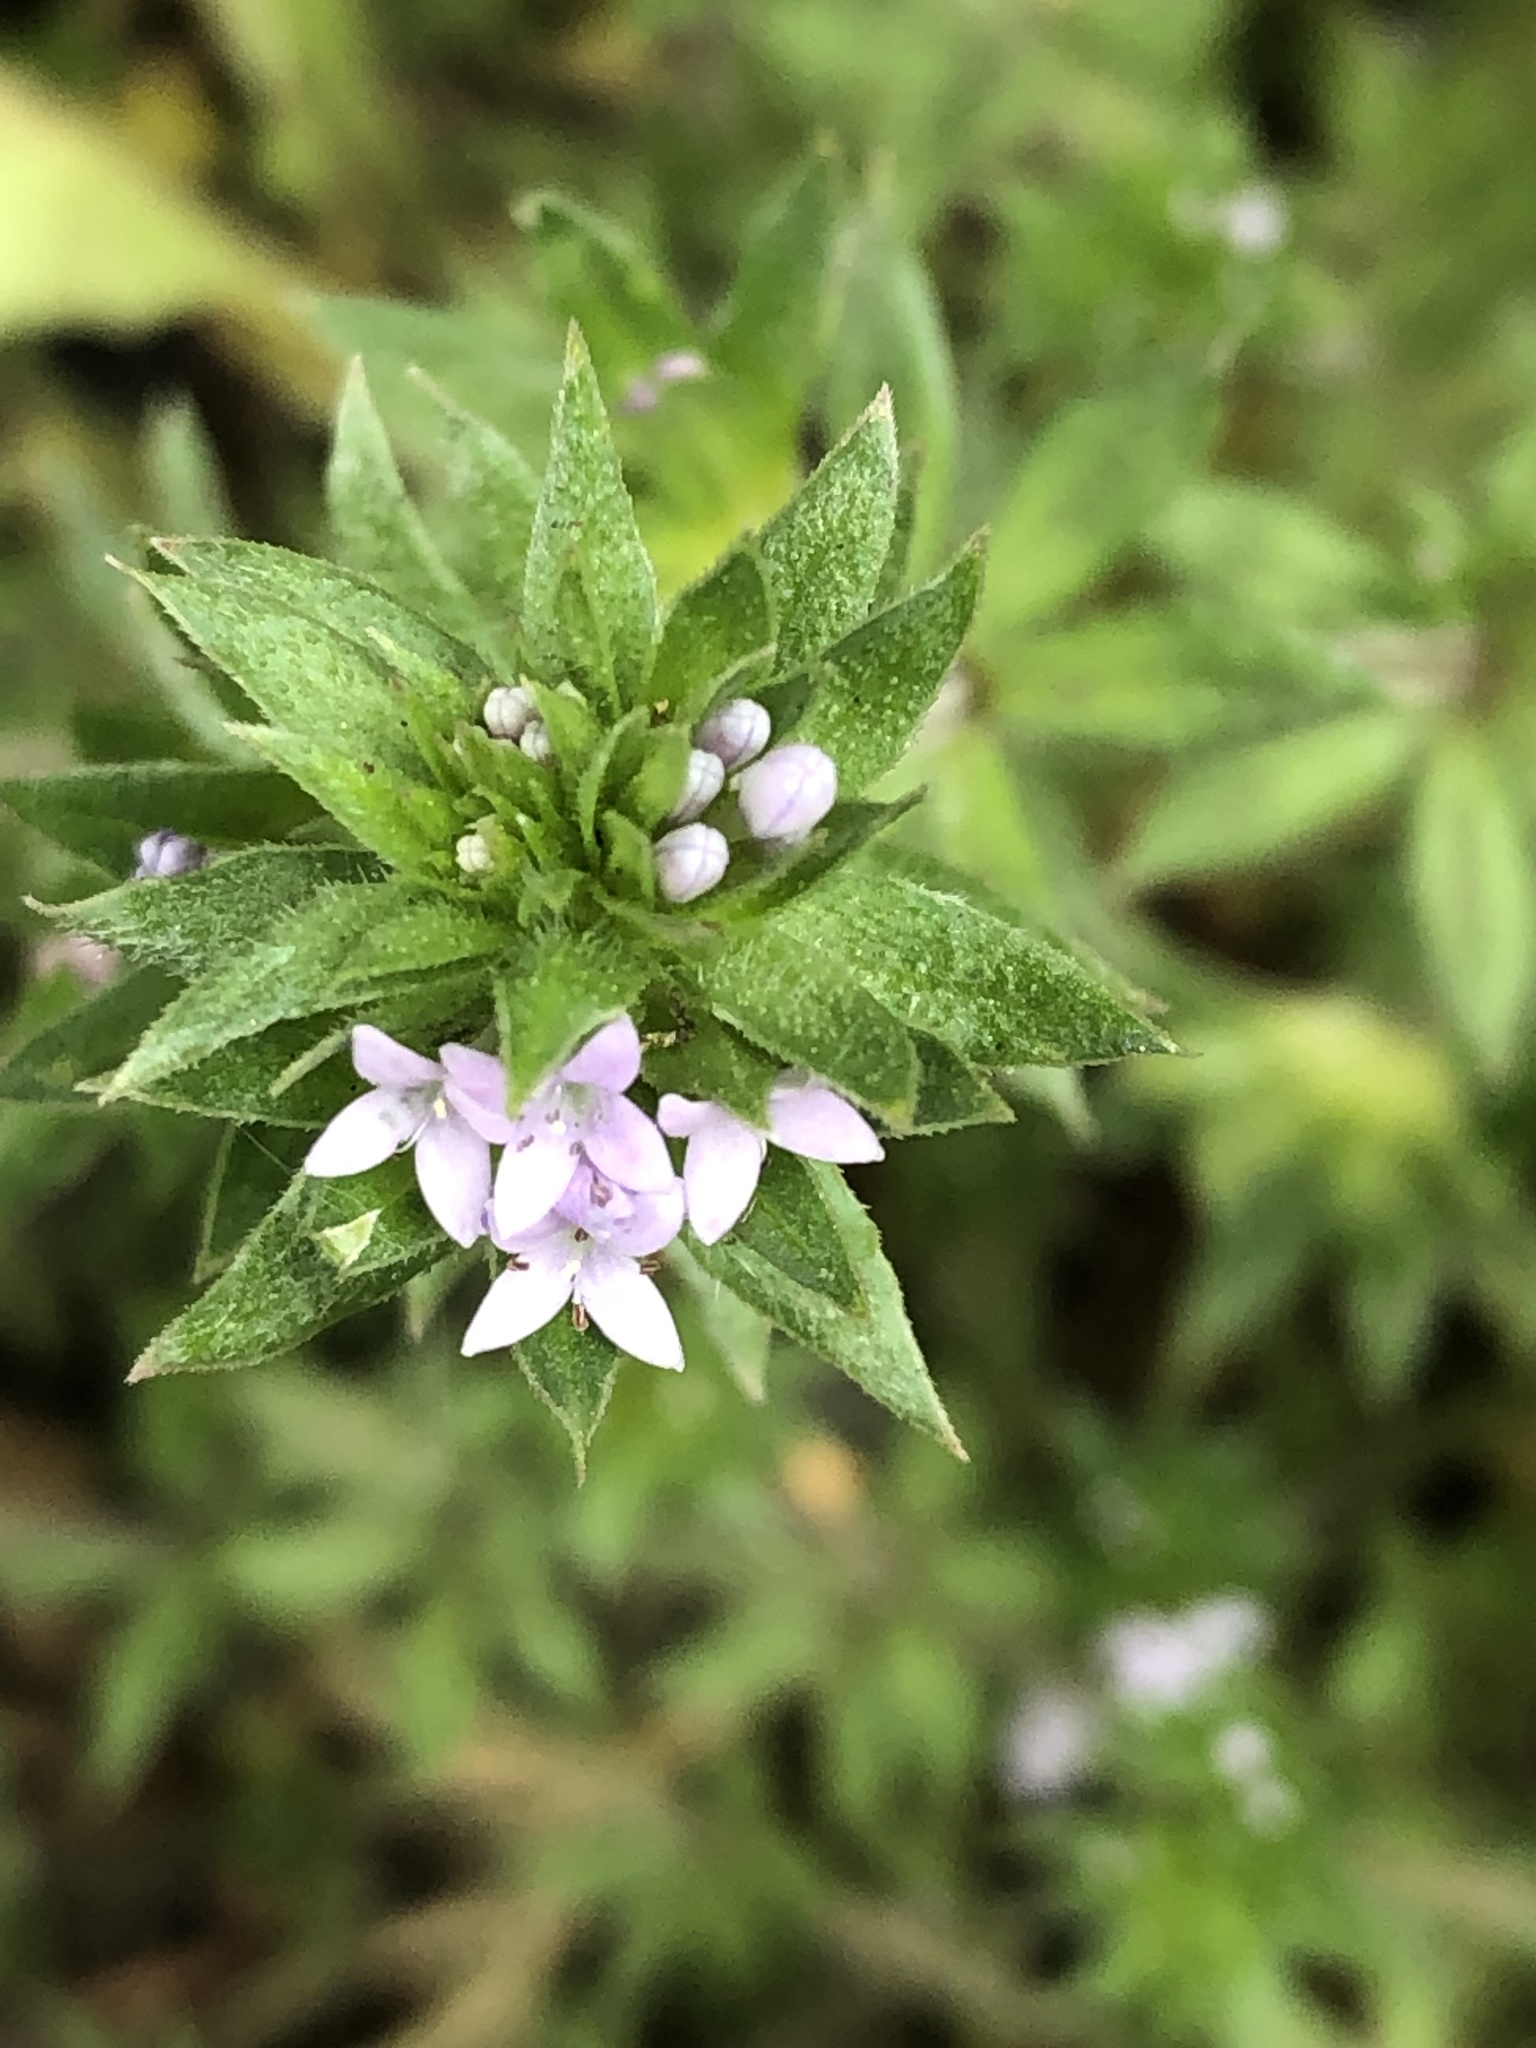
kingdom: Plantae
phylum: Tracheophyta
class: Magnoliopsida
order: Gentianales
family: Rubiaceae
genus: Sherardia
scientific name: Sherardia arvensis
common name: Field madder
